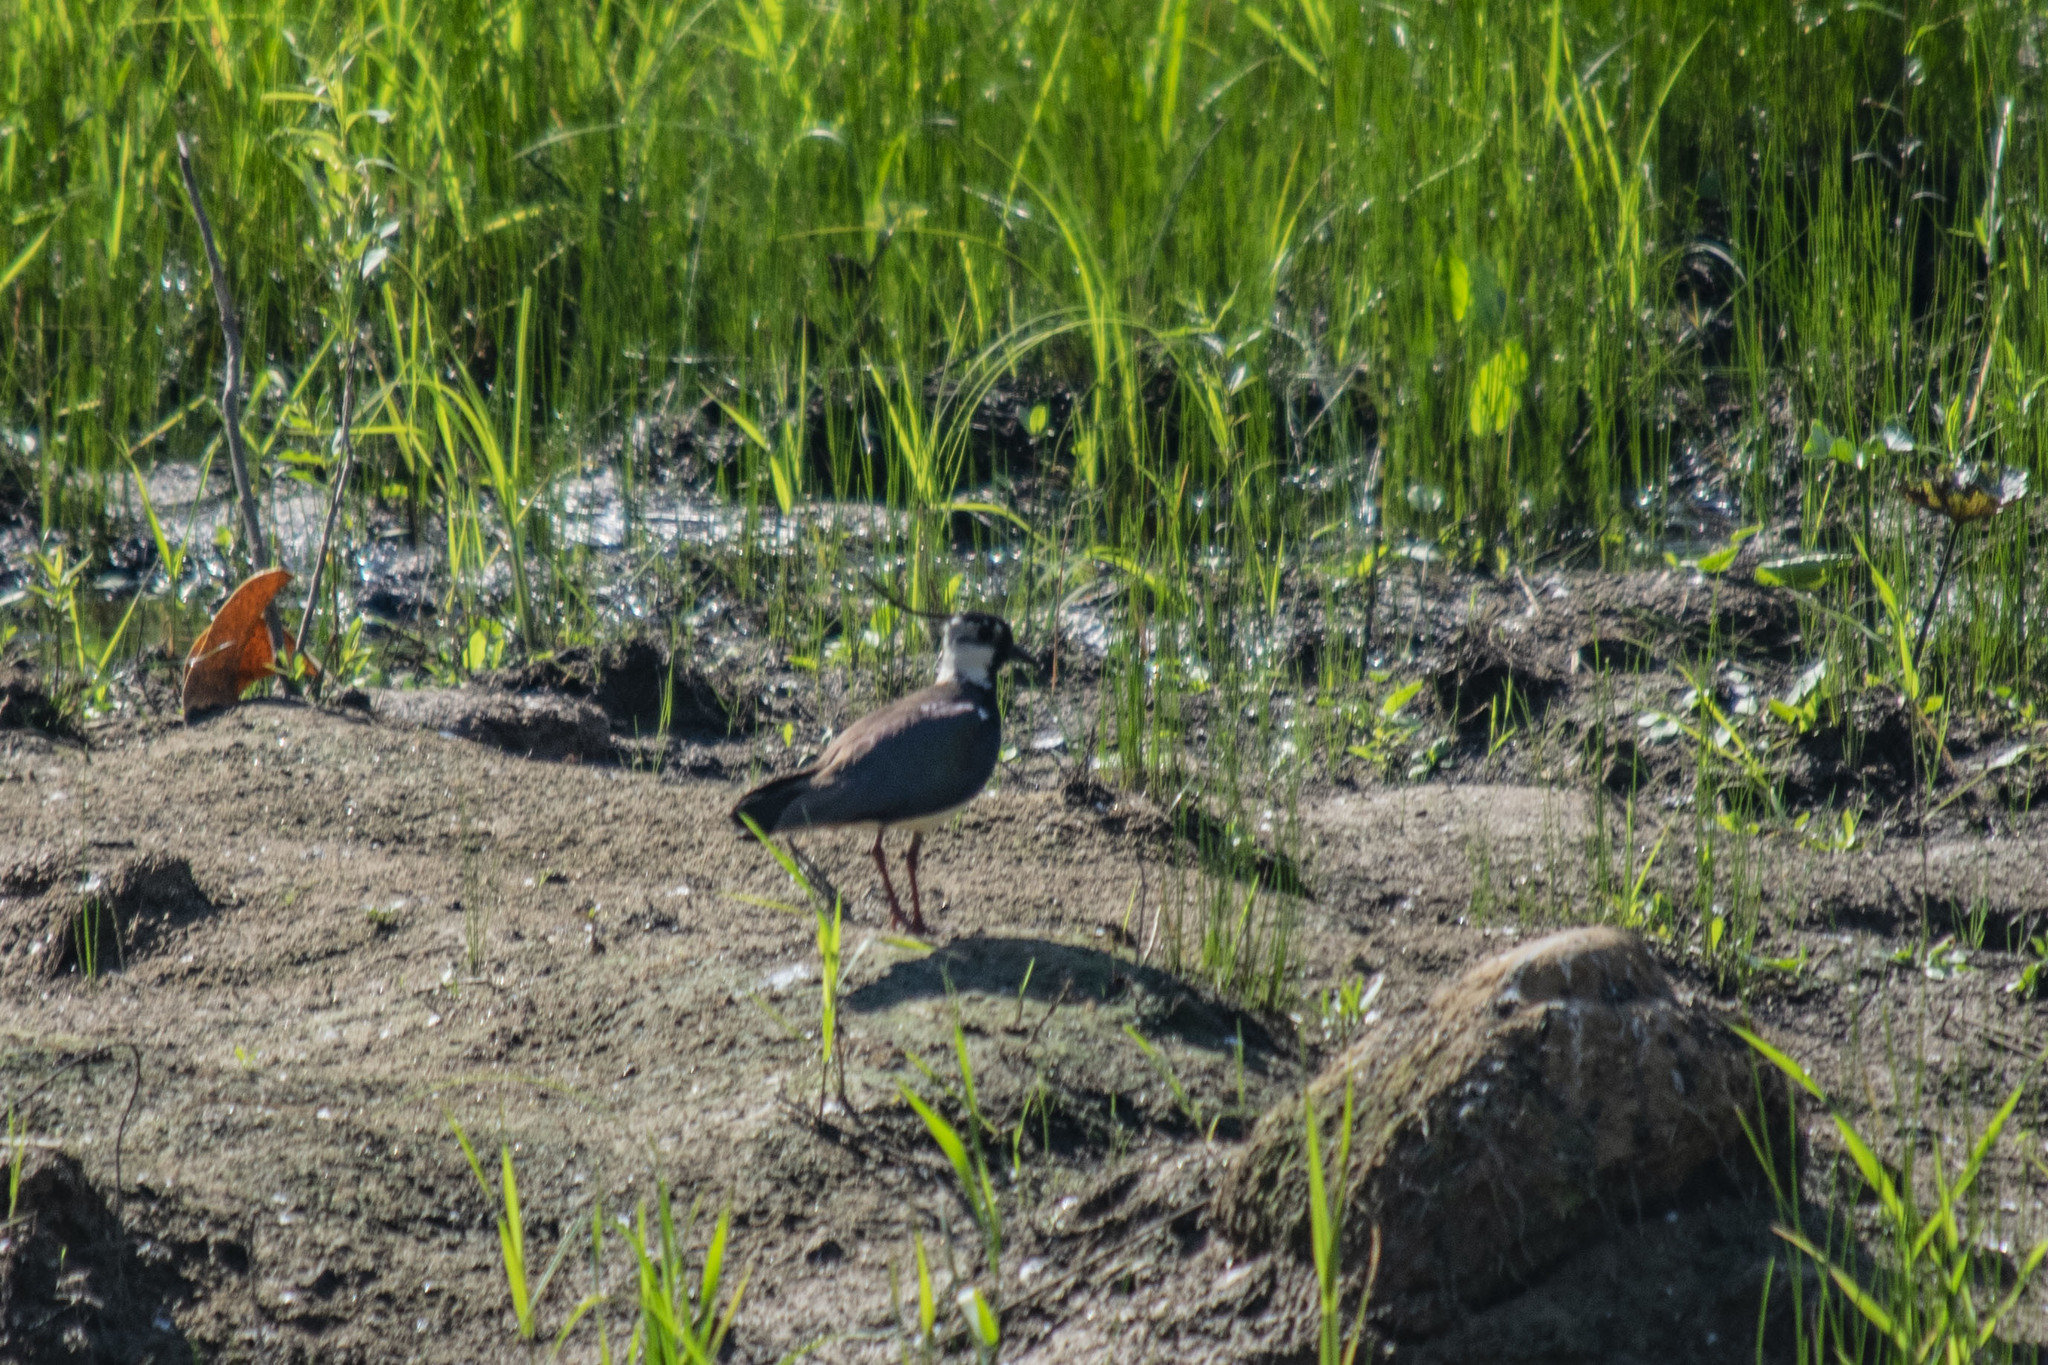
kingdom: Animalia
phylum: Chordata
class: Aves
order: Charadriiformes
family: Charadriidae
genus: Vanellus
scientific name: Vanellus vanellus
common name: Northern lapwing
